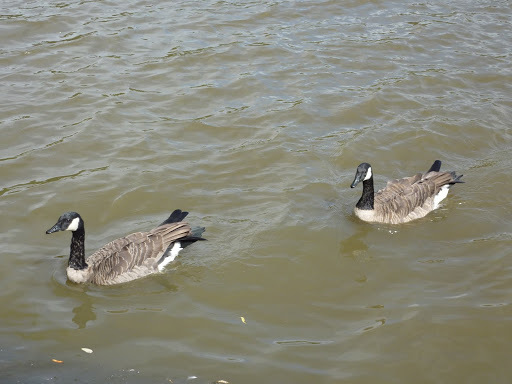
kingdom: Animalia
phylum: Chordata
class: Aves
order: Anseriformes
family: Anatidae
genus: Branta
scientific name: Branta canadensis
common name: Canada goose
